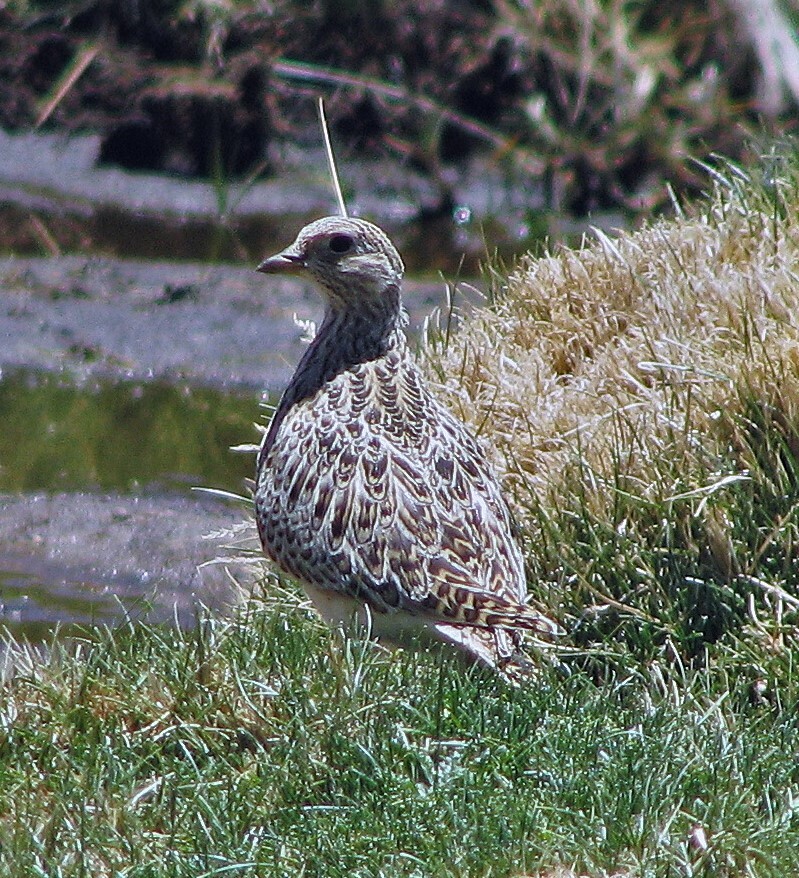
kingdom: Animalia
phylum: Chordata
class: Aves
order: Charadriiformes
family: Thinocoridae
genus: Thinocorus
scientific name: Thinocorus orbignyianus
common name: Grey-breasted seedsnipe
